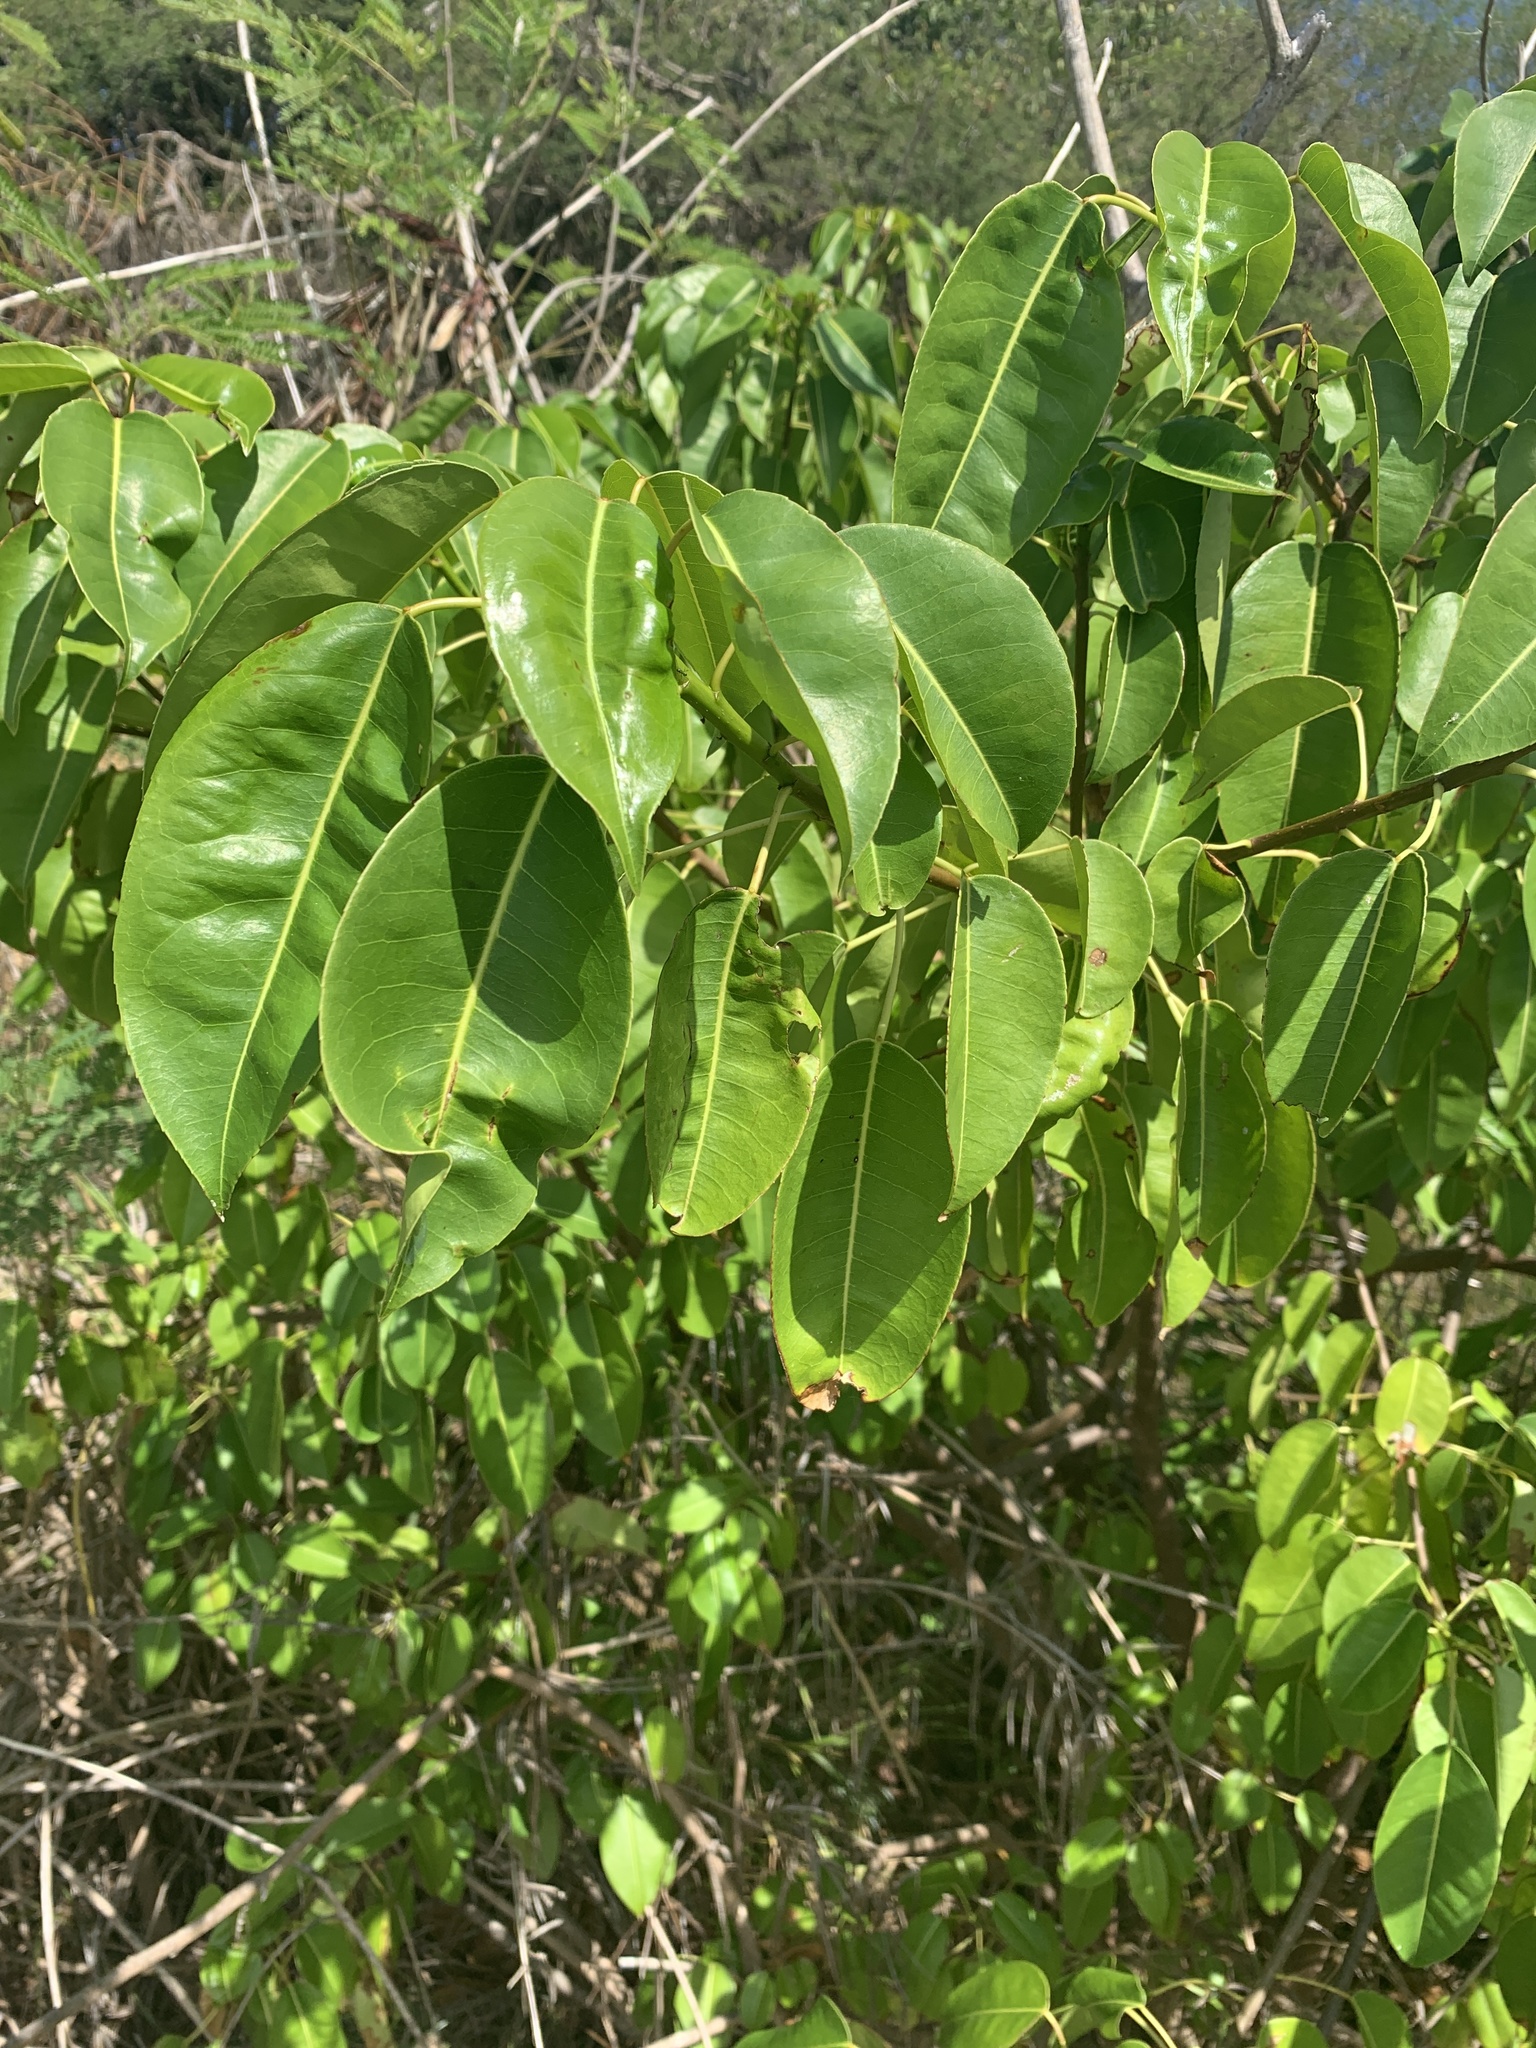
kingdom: Plantae
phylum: Tracheophyta
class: Magnoliopsida
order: Malpighiales
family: Euphorbiaceae
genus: Hippomane
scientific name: Hippomane mancinella
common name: Manchineel
